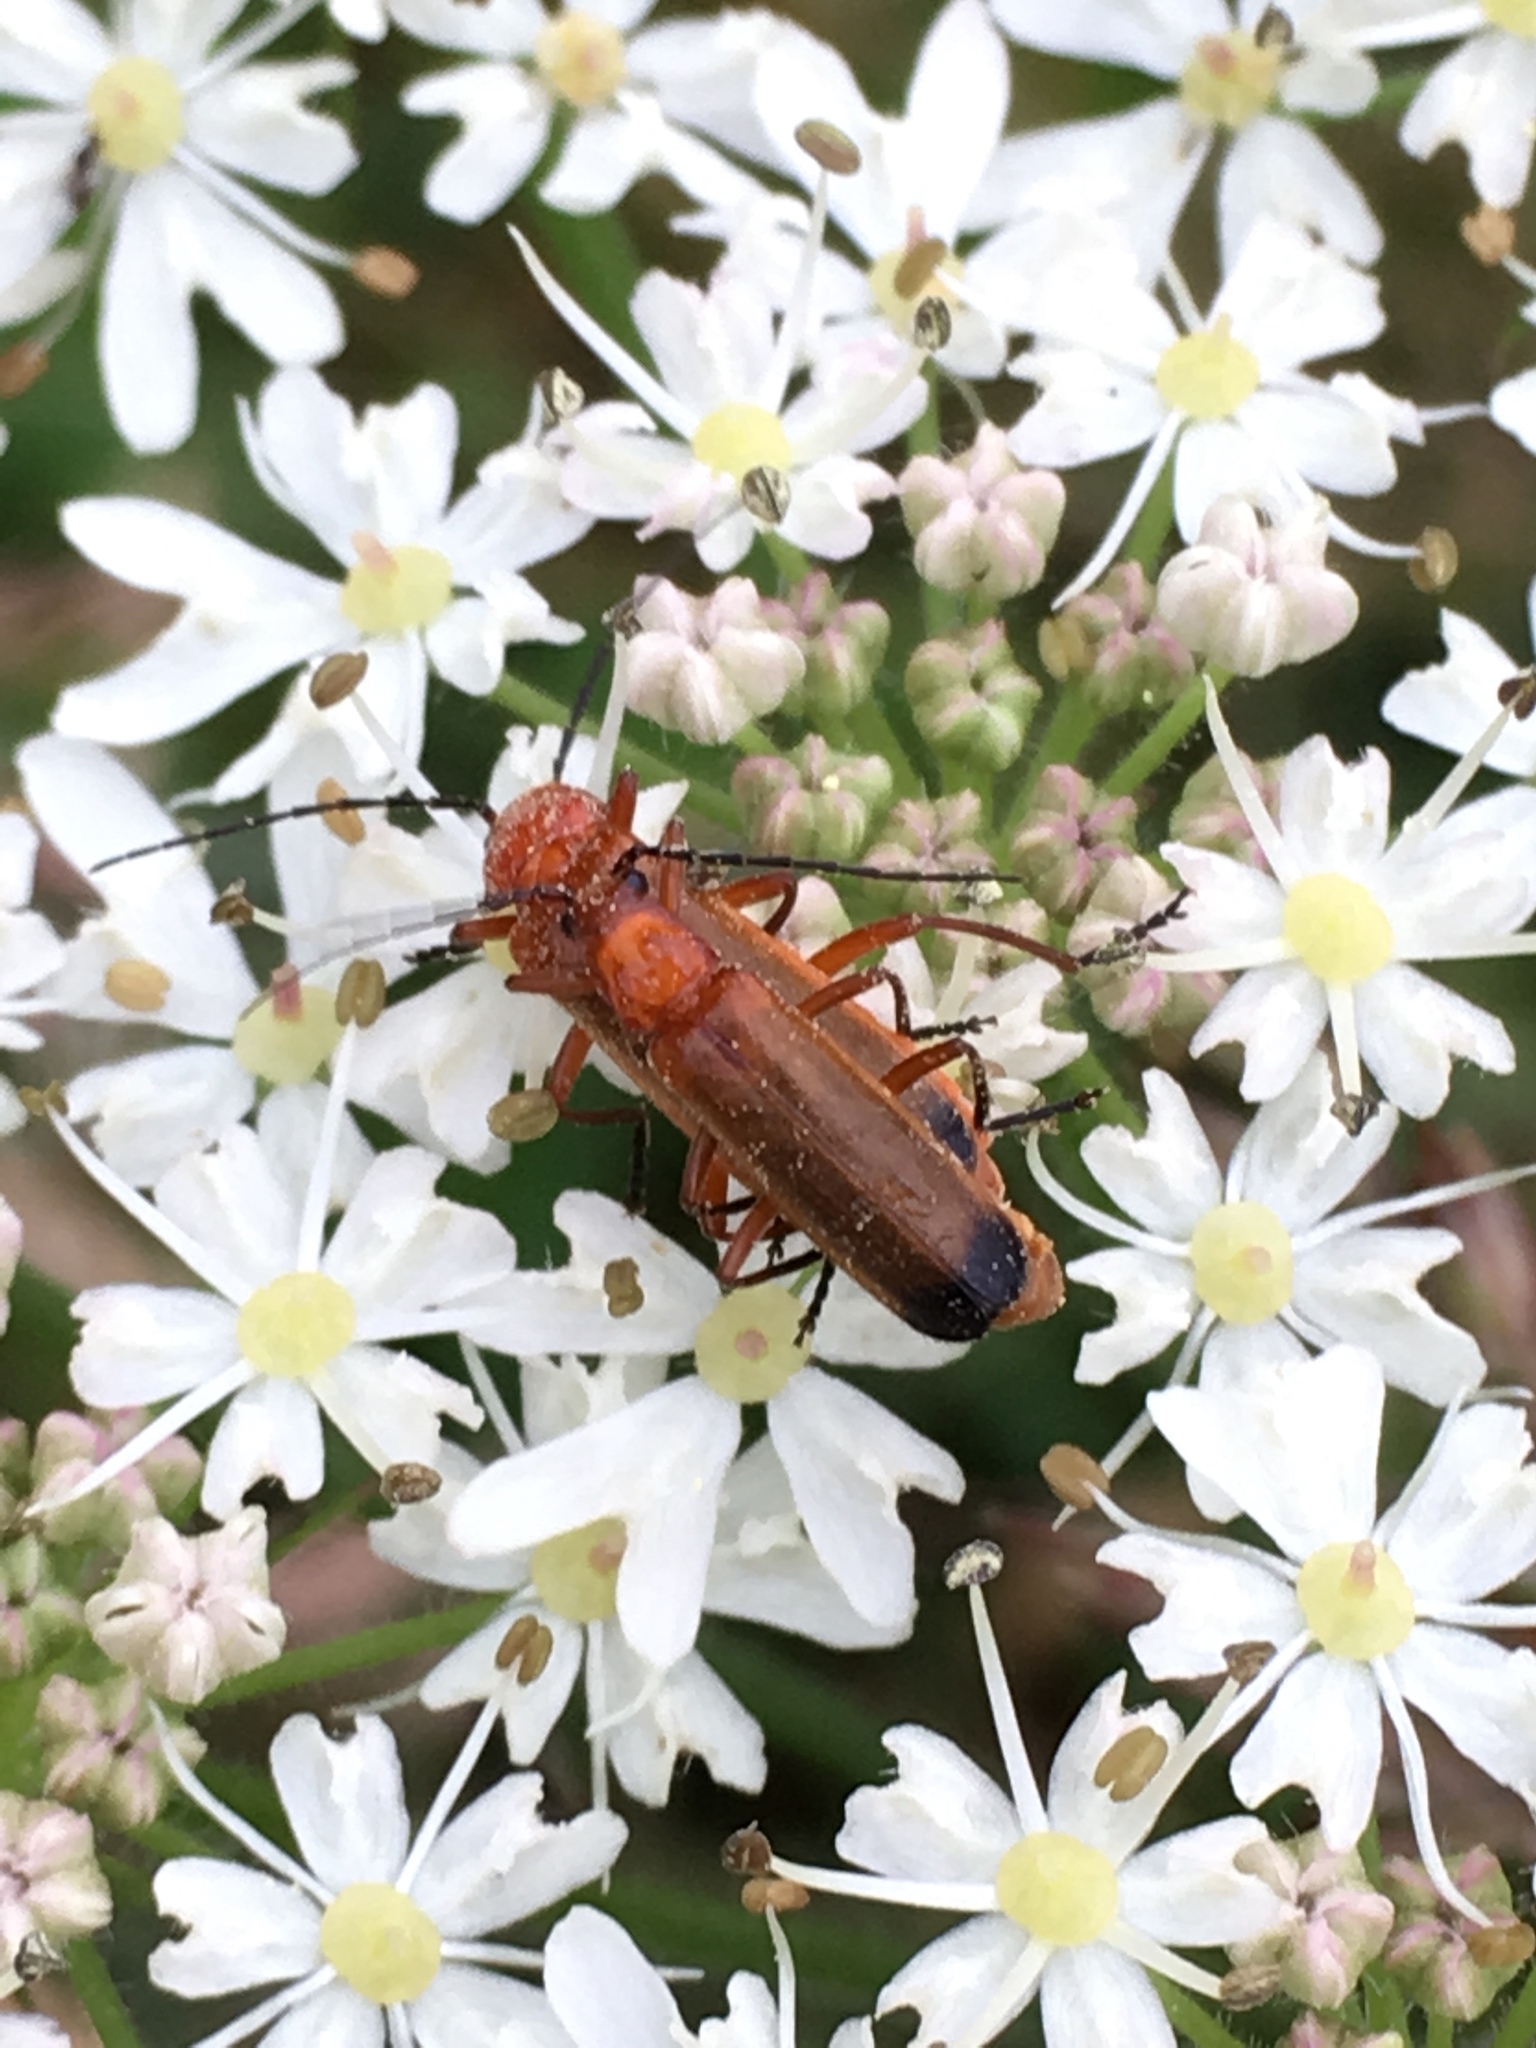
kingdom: Animalia
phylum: Arthropoda
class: Insecta
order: Coleoptera
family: Cantharidae
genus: Rhagonycha
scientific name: Rhagonycha fulva
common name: Common red soldier beetle
